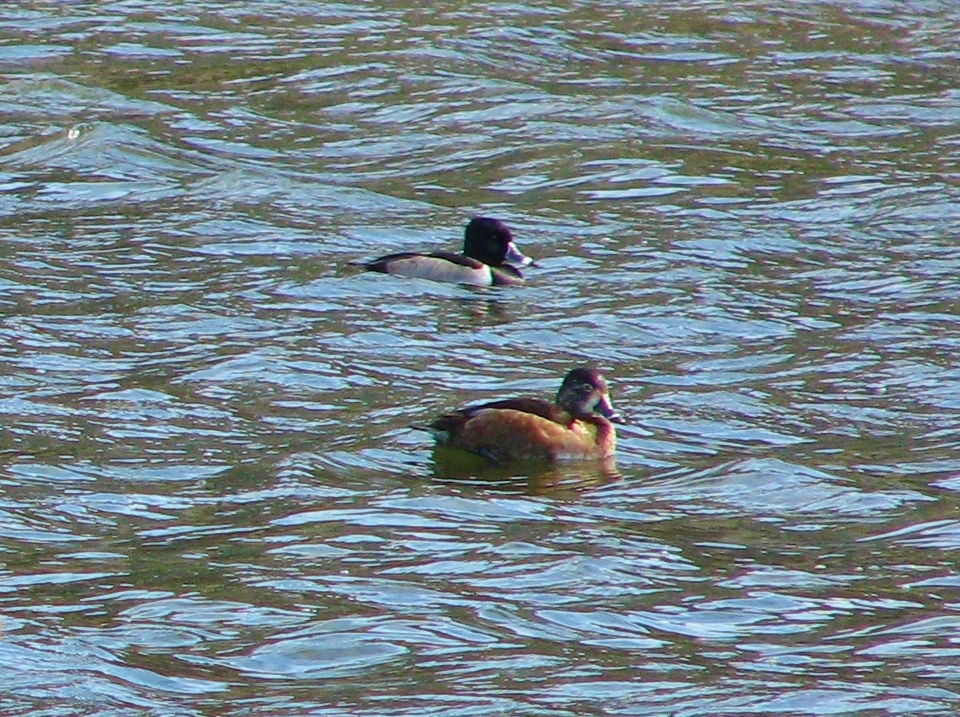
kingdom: Animalia
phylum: Chordata
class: Aves
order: Anseriformes
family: Anatidae
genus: Aythya
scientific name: Aythya collaris
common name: Ring-necked duck
